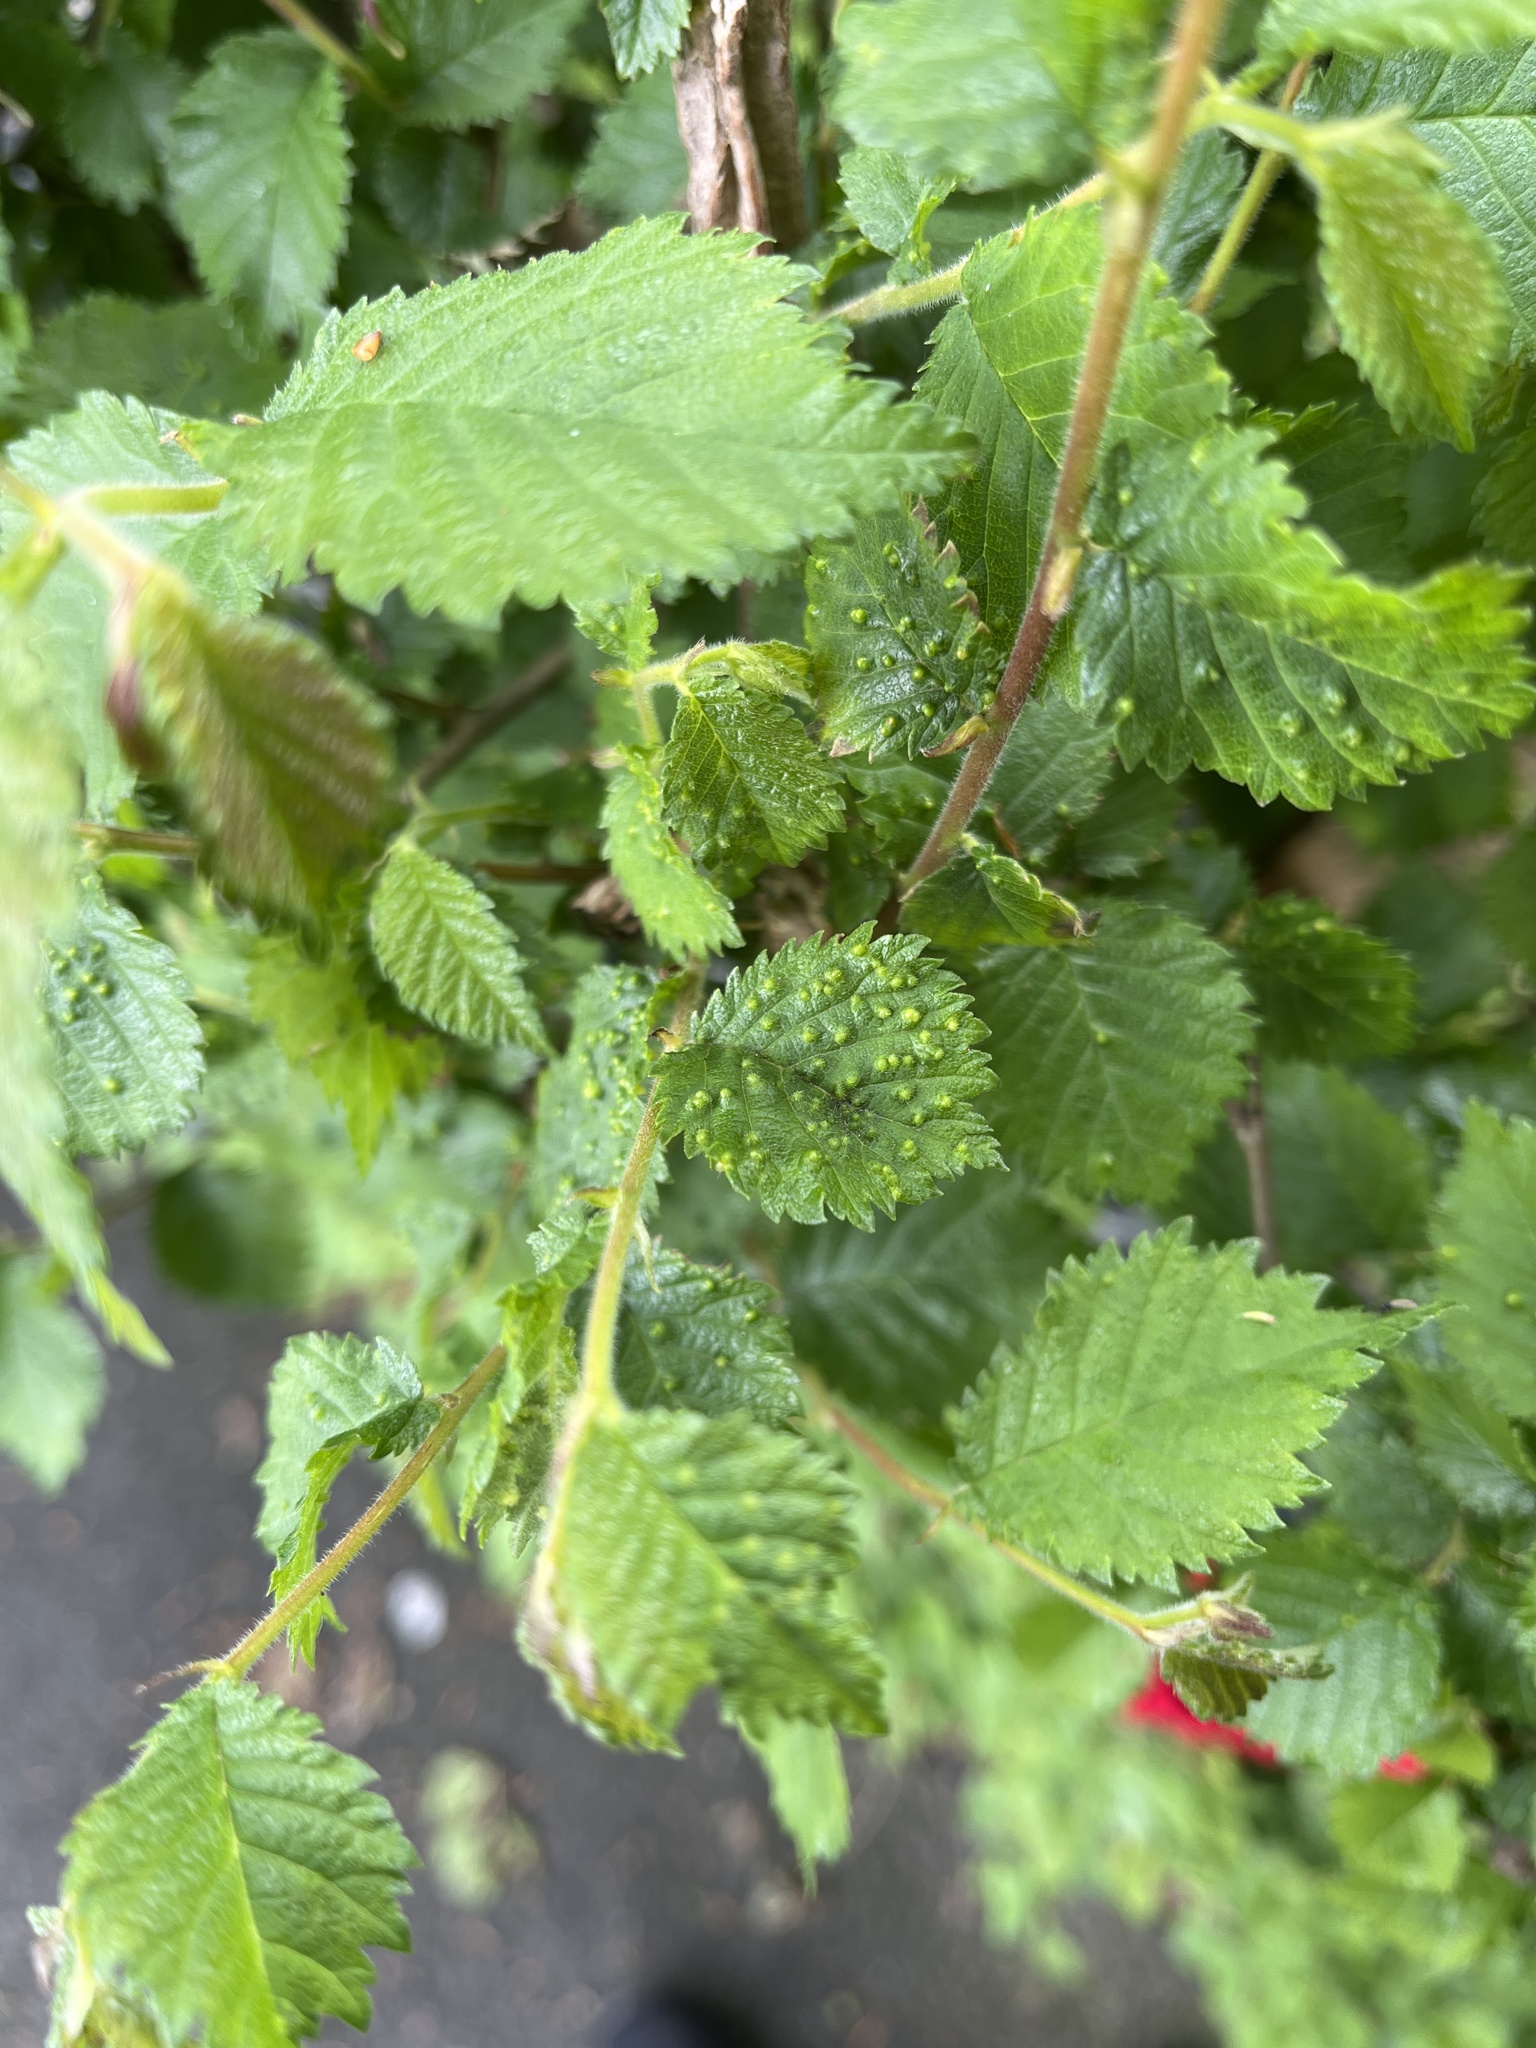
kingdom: Animalia
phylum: Arthropoda
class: Arachnida
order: Trombidiformes
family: Eriophyidae
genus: Aceria
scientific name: Aceria brevipunctata
